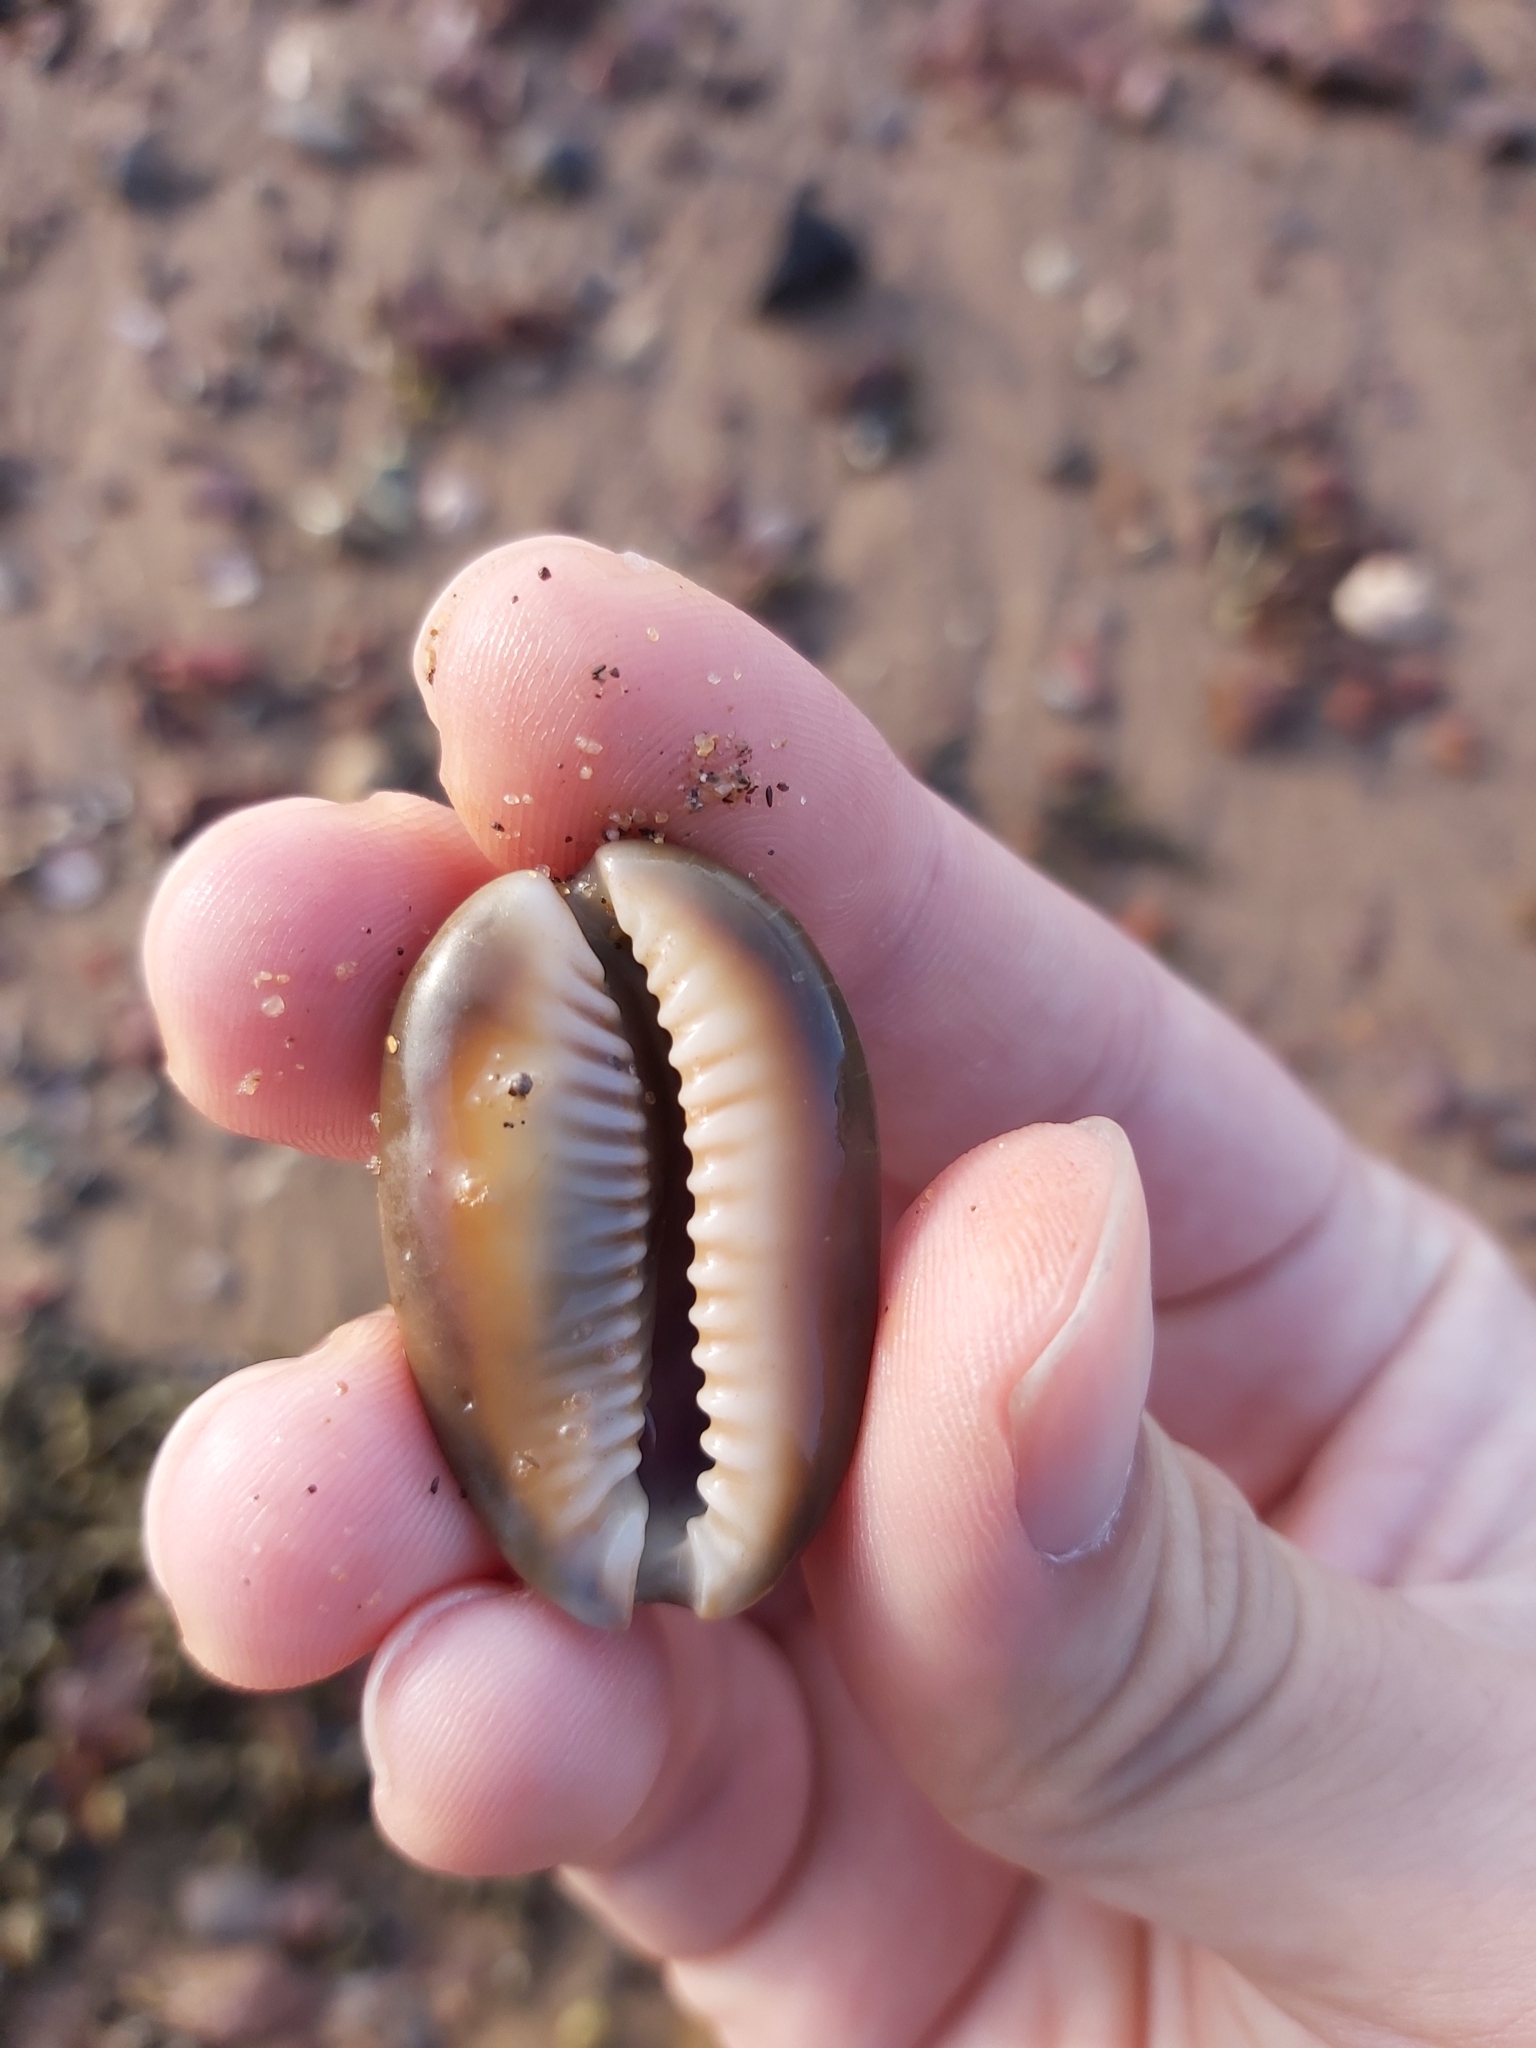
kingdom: Animalia
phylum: Mollusca
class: Gastropoda
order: Littorinimorpha
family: Cypraeidae
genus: Monetaria
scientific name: Monetaria caputserpentis
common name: Serpent's head cowrie
